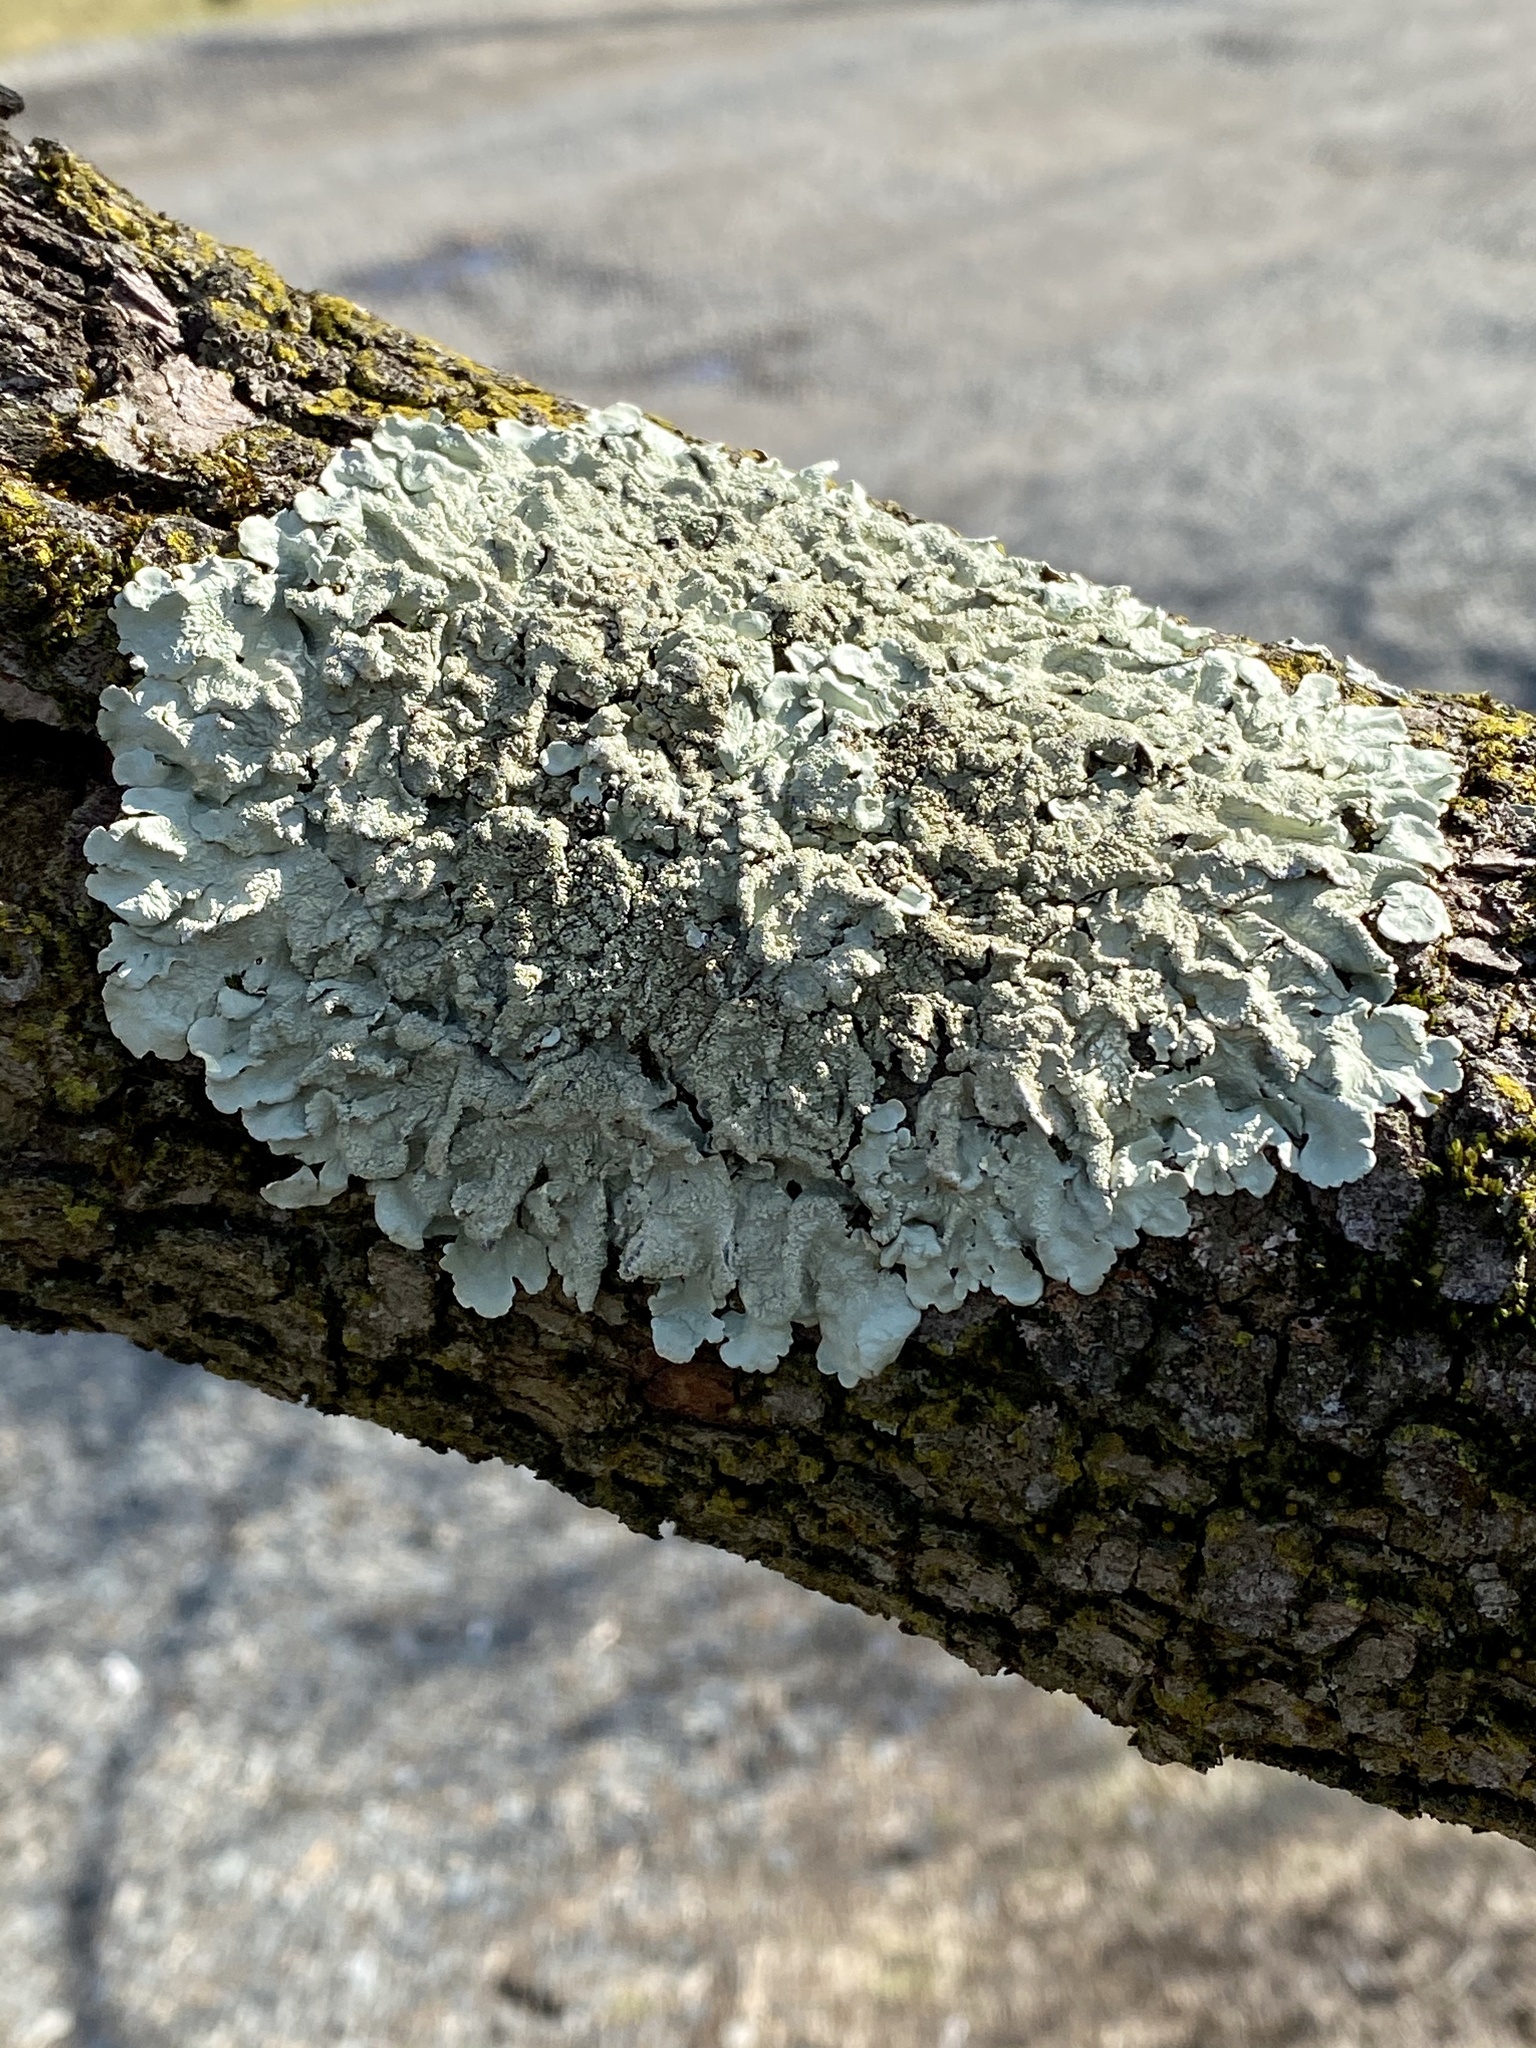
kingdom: Fungi
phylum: Ascomycota
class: Lecanoromycetes
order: Lecanorales
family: Parmeliaceae
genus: Flavoparmelia
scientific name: Flavoparmelia caperata
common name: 40-mile per hour lichen
